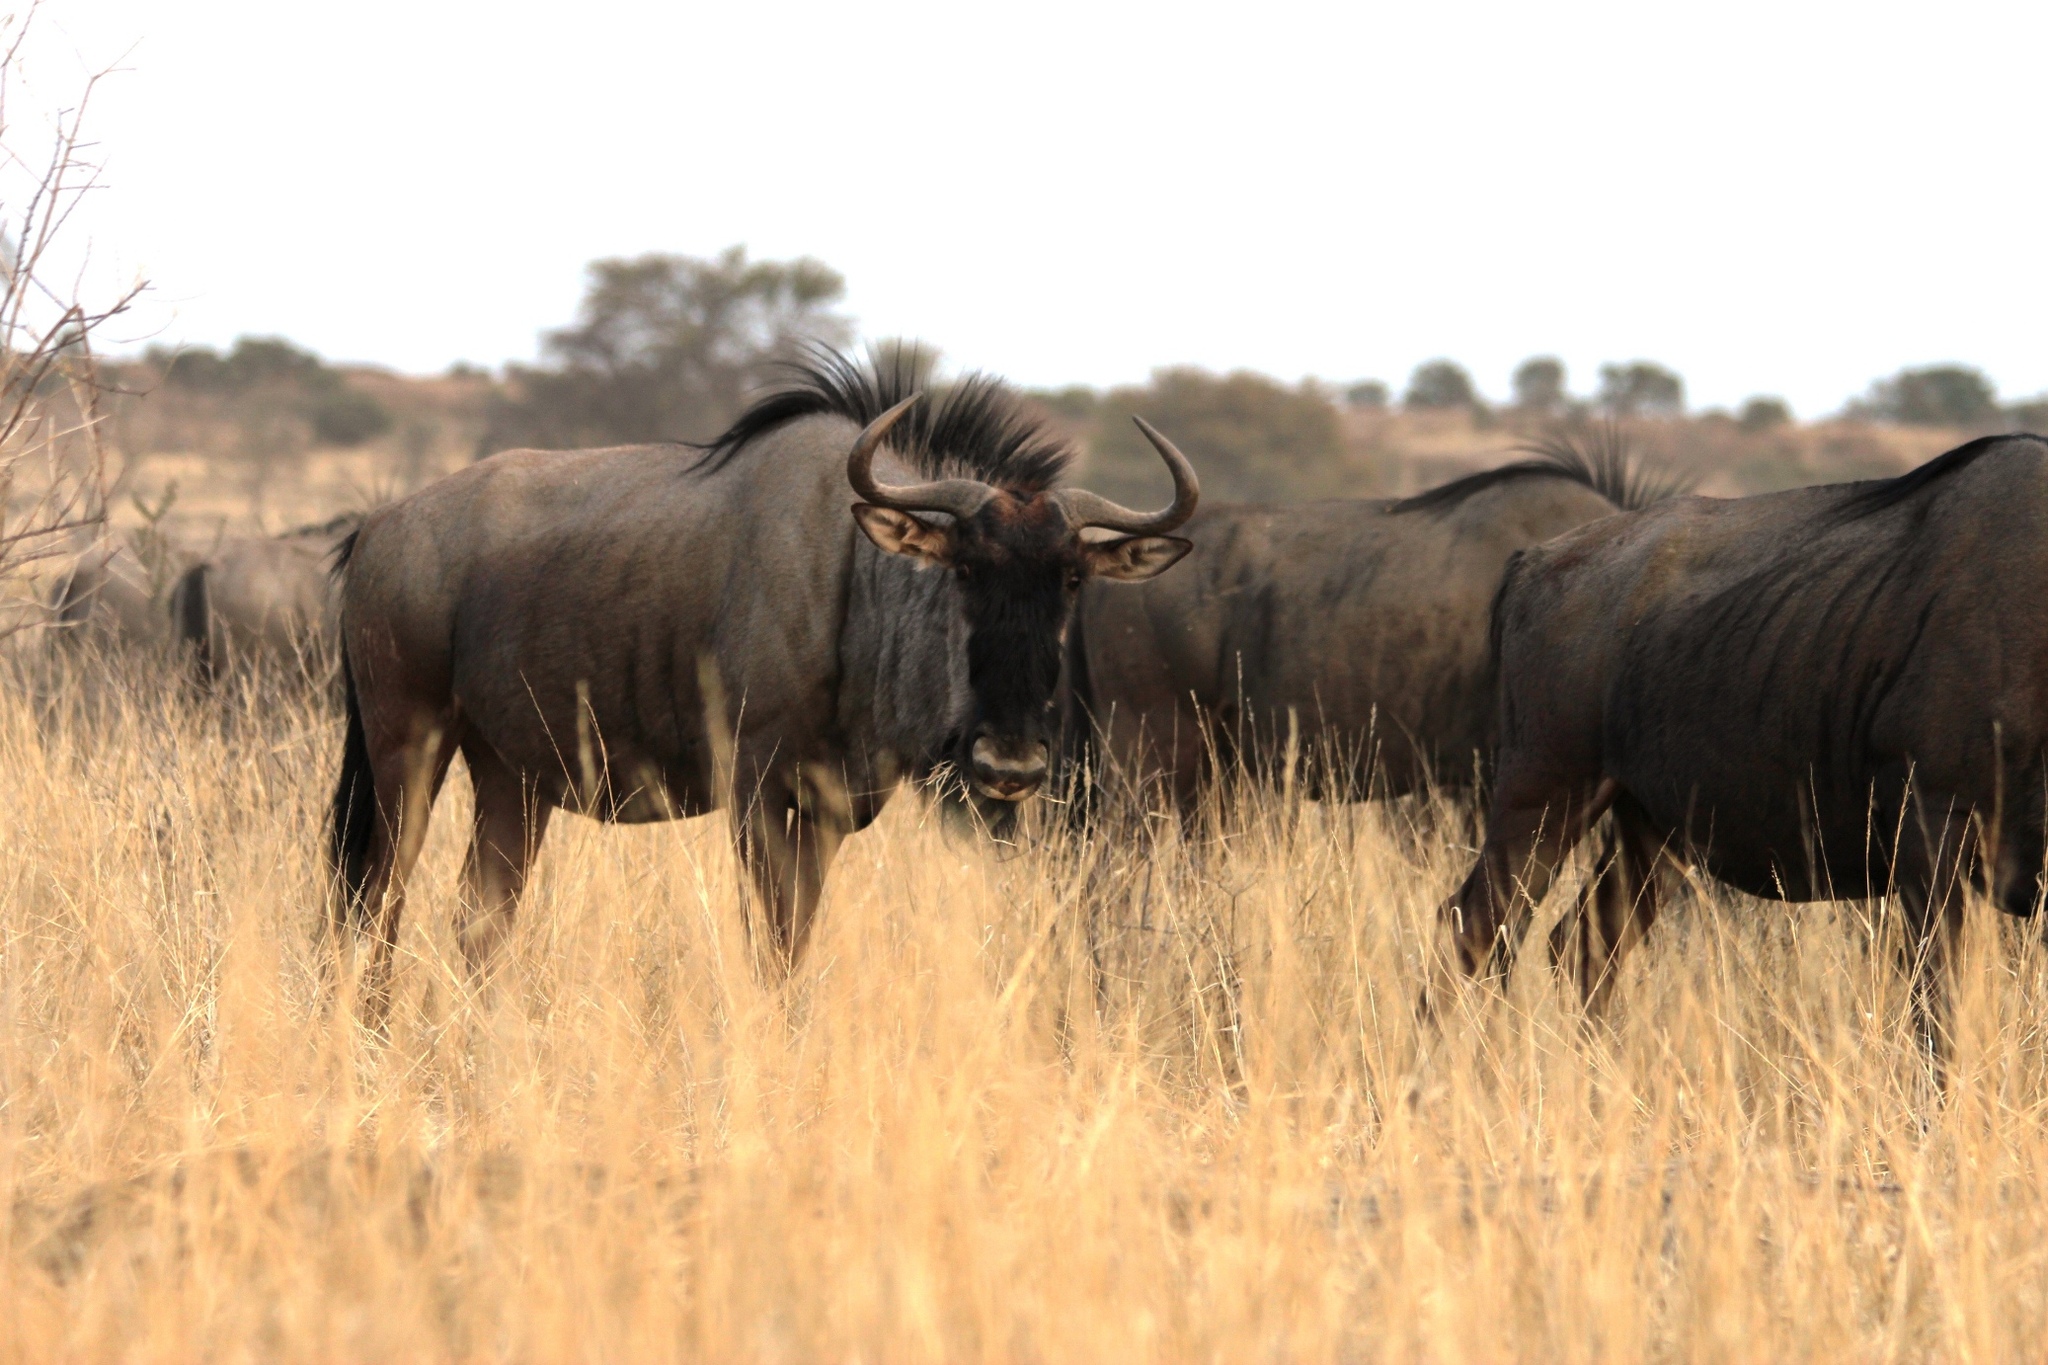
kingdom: Animalia
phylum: Chordata
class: Mammalia
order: Artiodactyla
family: Bovidae
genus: Connochaetes
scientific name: Connochaetes taurinus
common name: Blue wildebeest
